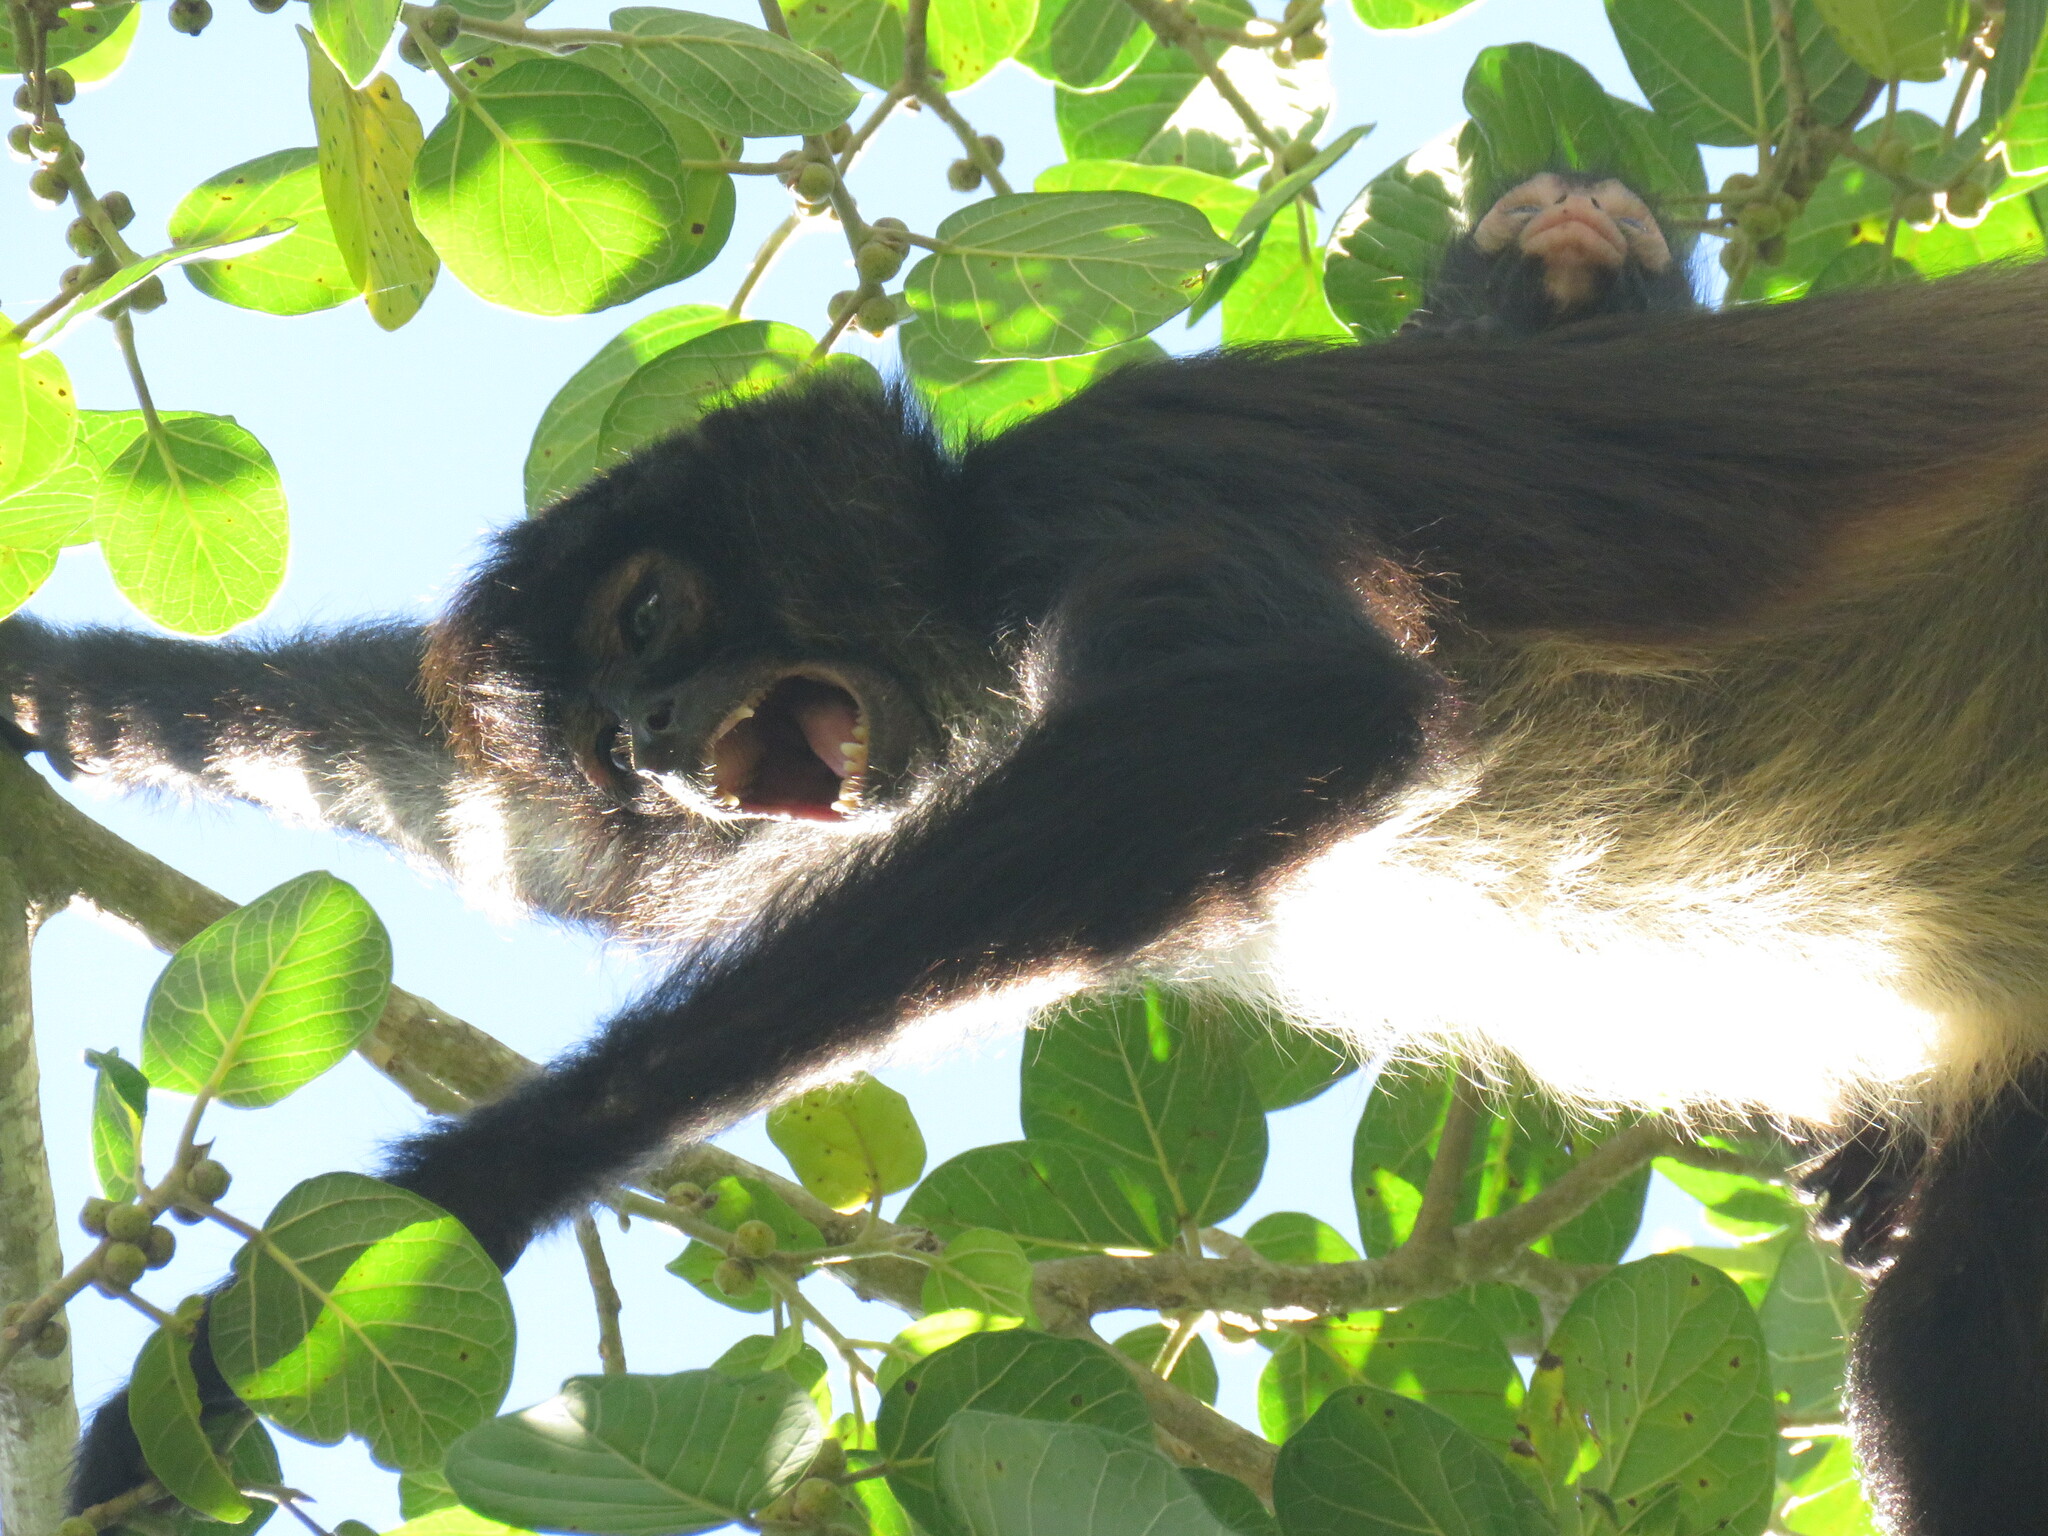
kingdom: Animalia
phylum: Chordata
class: Mammalia
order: Primates
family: Atelidae
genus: Ateles
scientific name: Ateles geoffroyi
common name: Black-handed spider monkey
